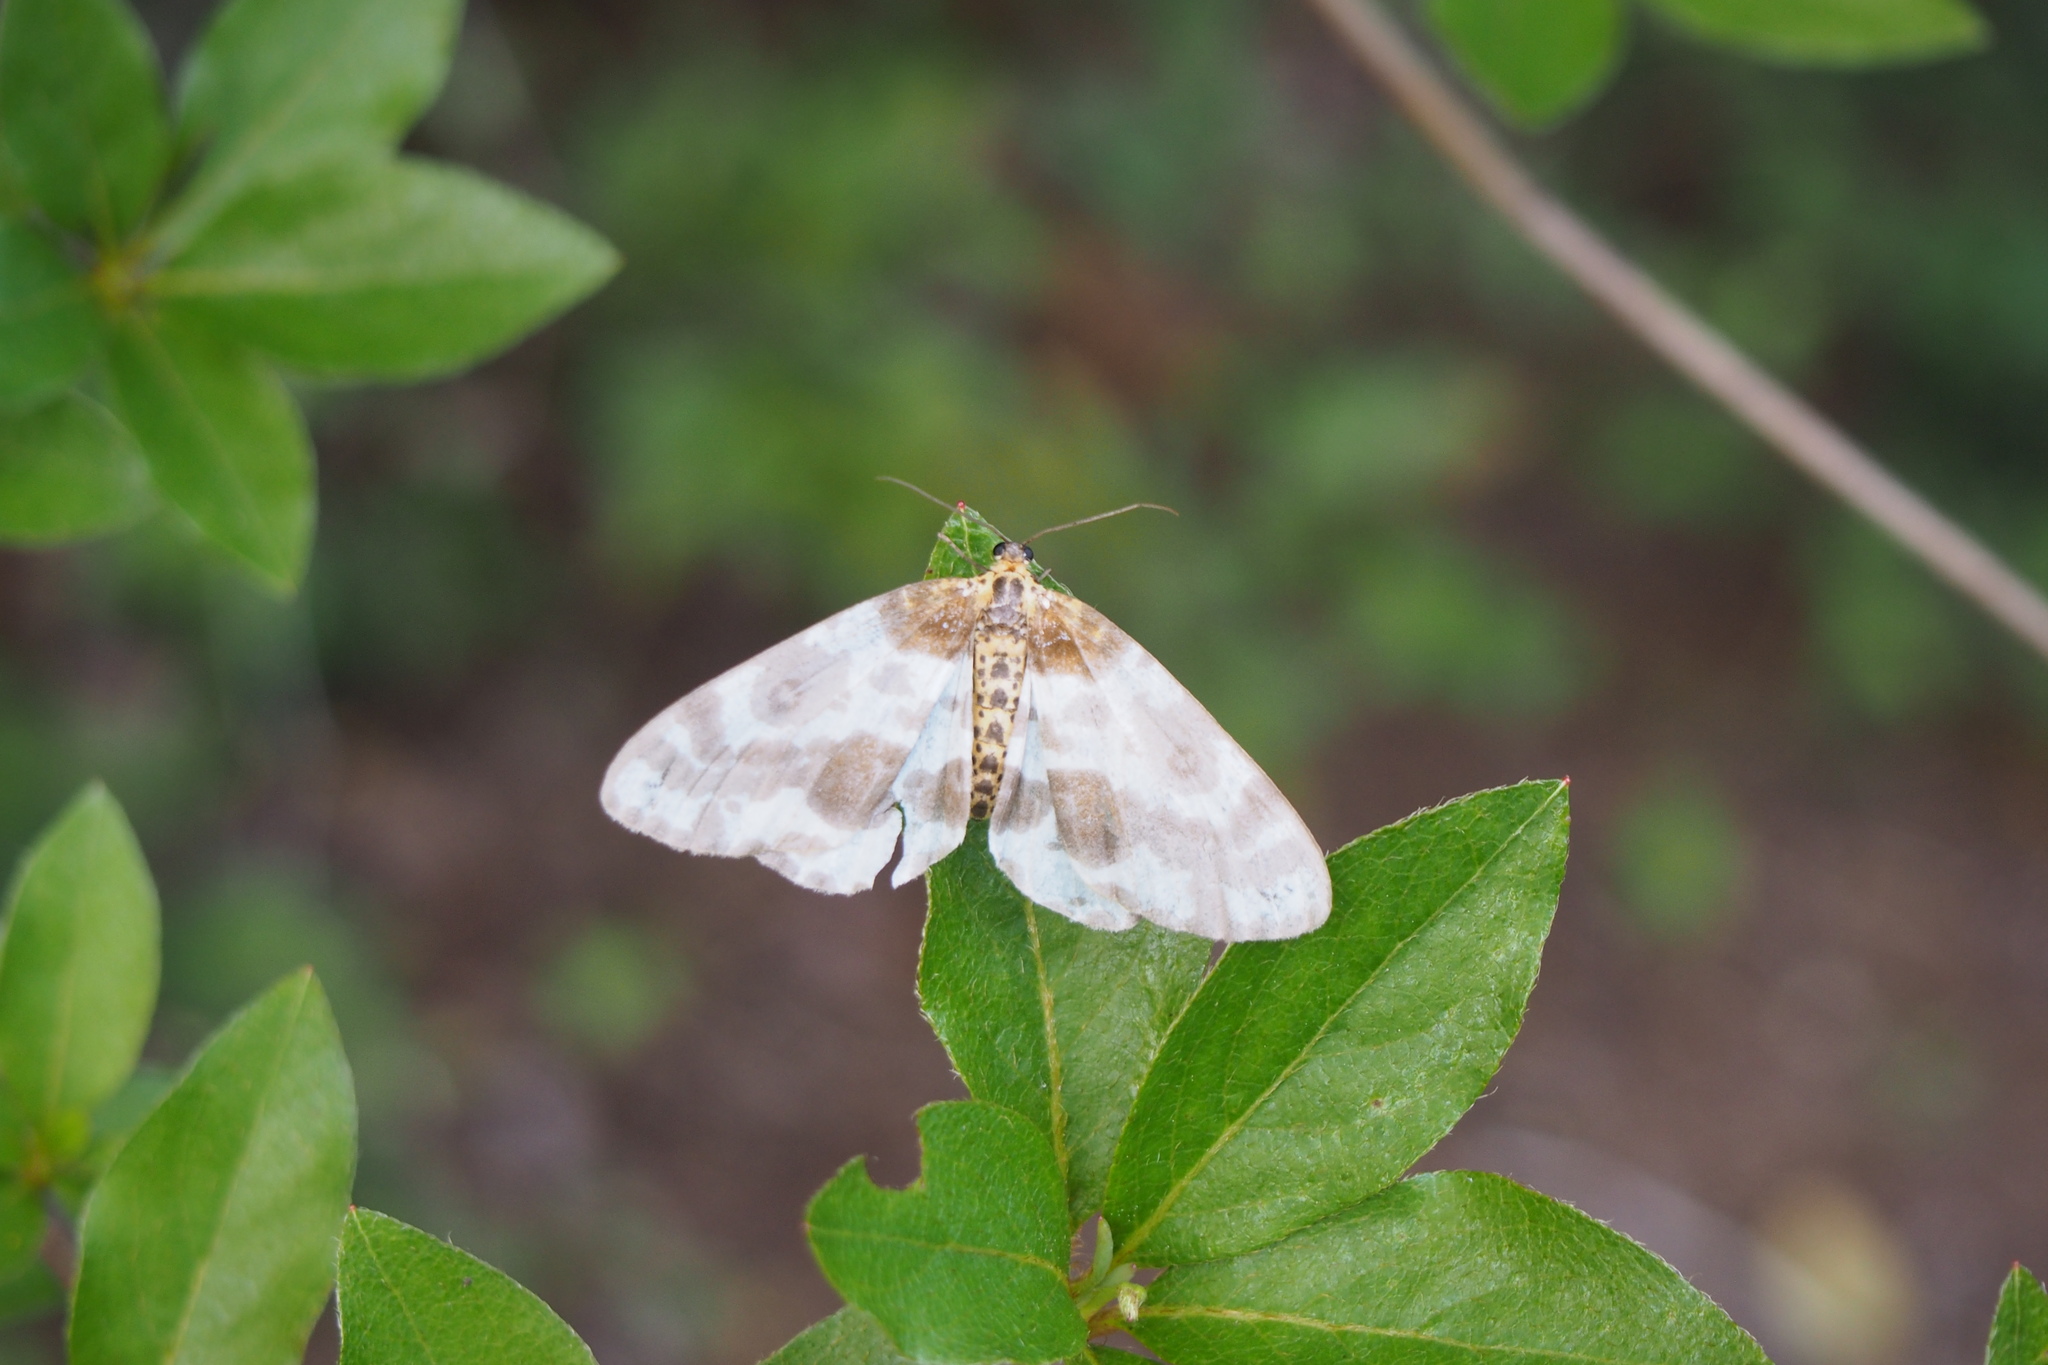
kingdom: Animalia
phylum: Arthropoda
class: Insecta
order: Lepidoptera
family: Geometridae
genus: Abraxas
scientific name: Abraxas fulvobasalis
